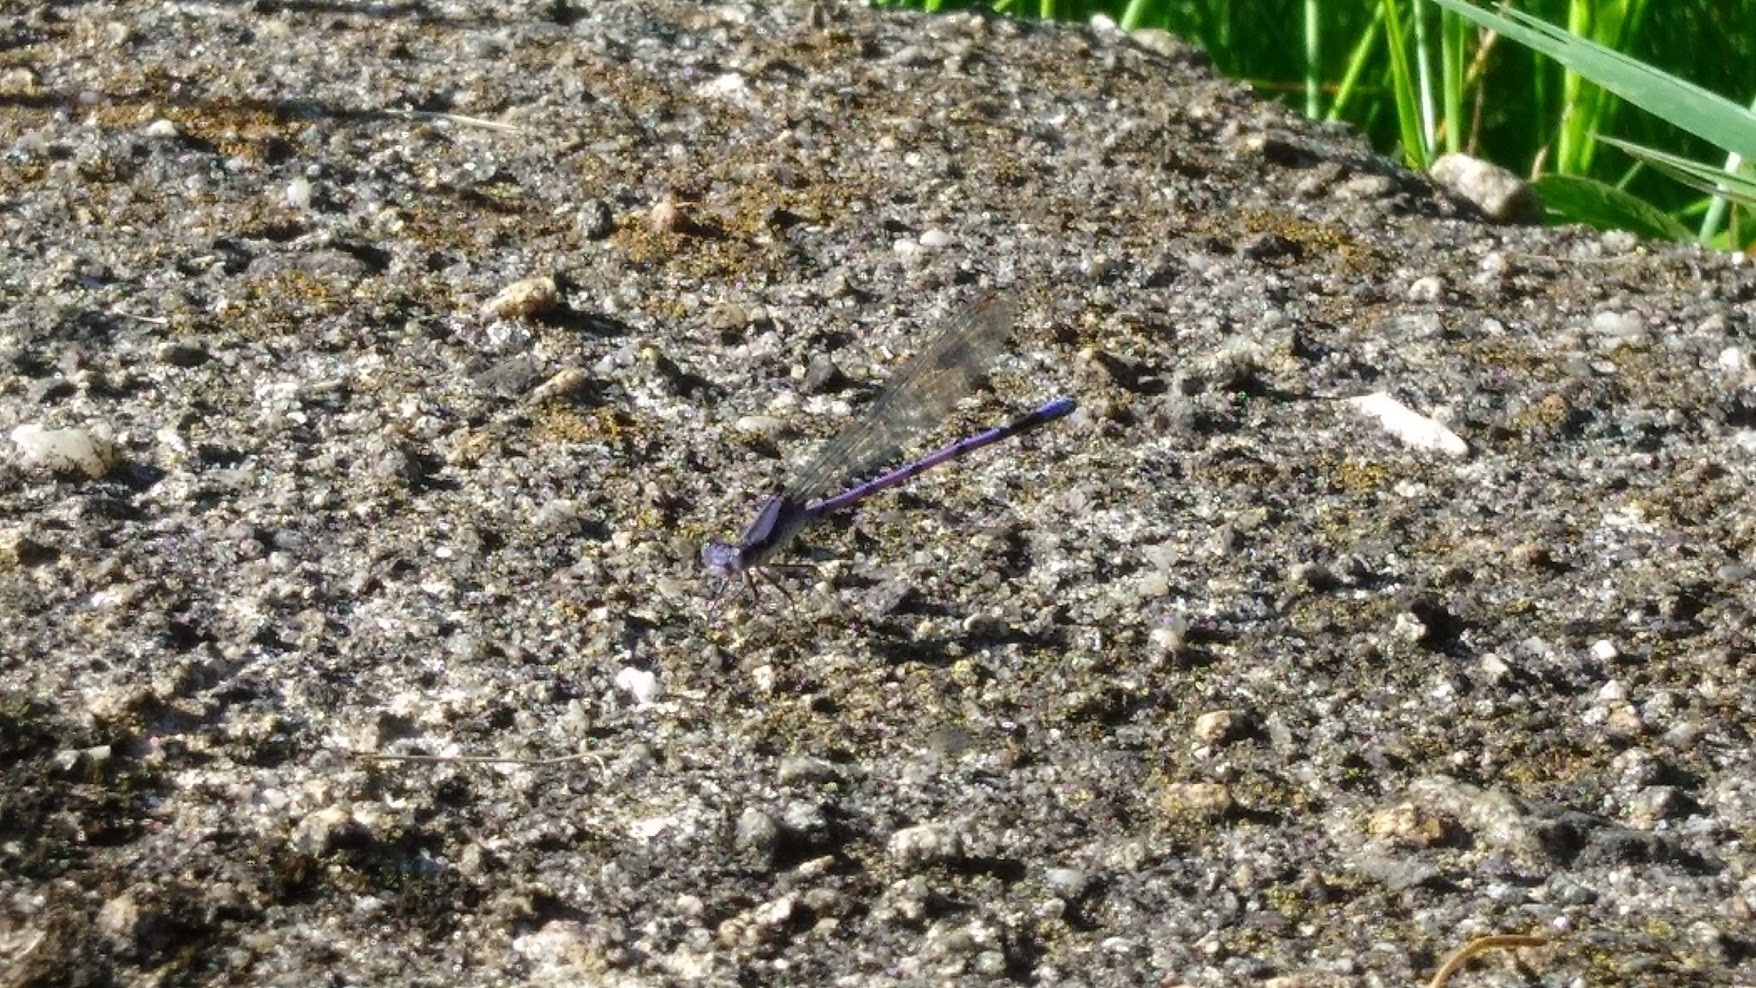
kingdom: Animalia
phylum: Arthropoda
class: Insecta
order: Odonata
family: Coenagrionidae
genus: Argia
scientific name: Argia fumipennis
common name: Variable dancer
